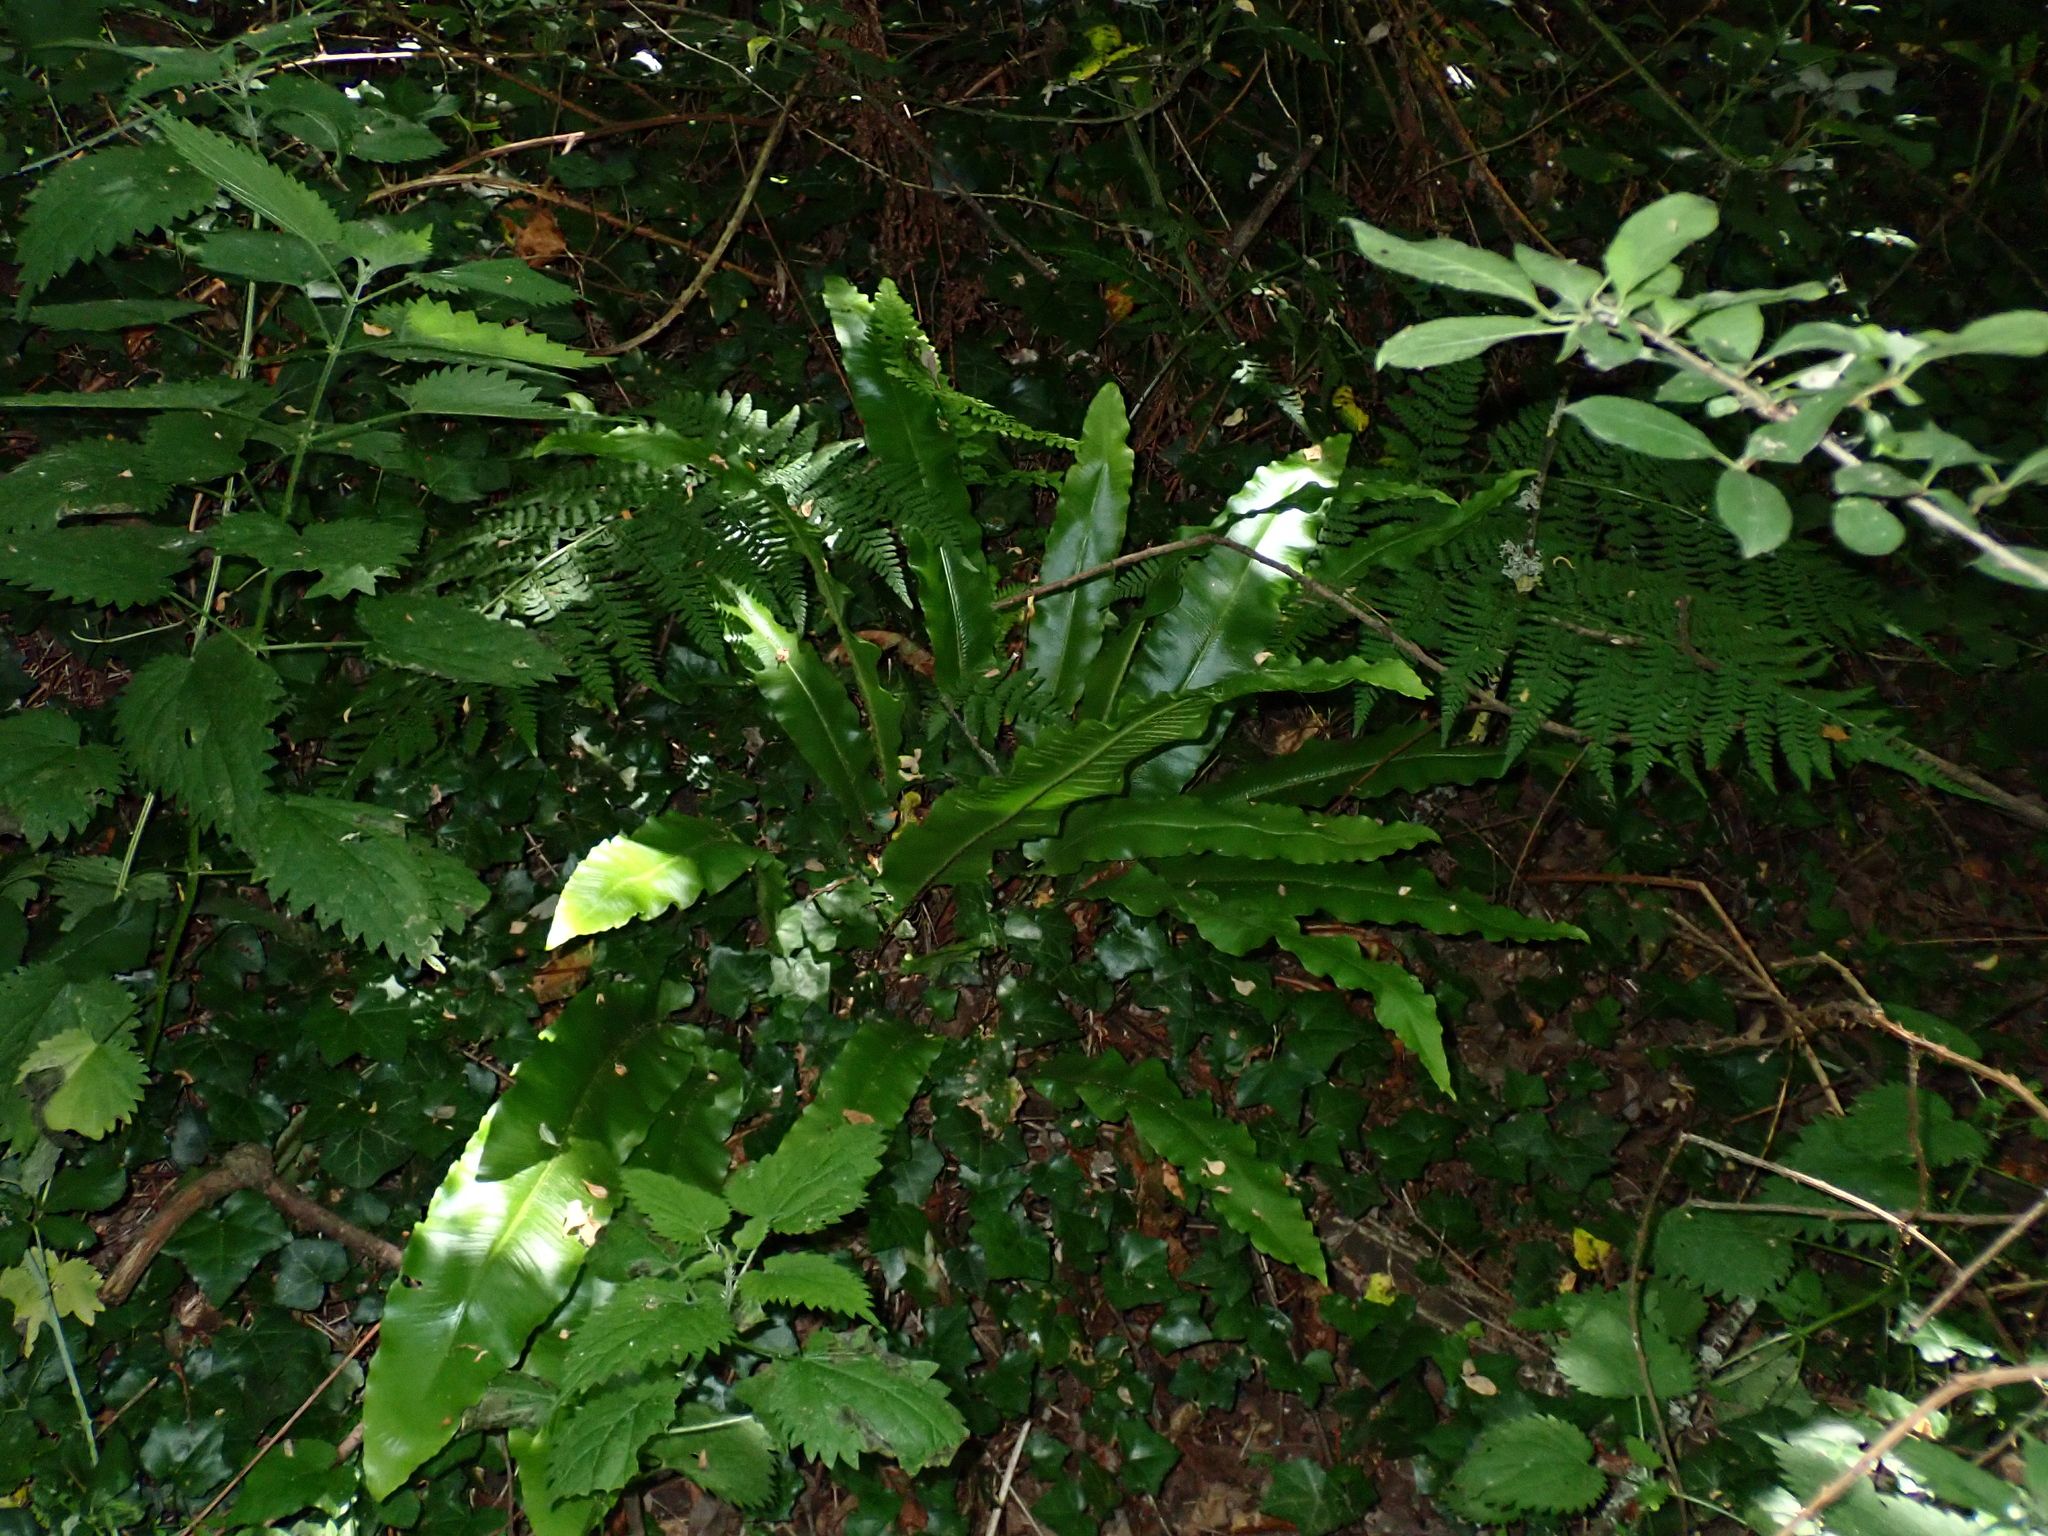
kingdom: Plantae
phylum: Tracheophyta
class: Polypodiopsida
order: Polypodiales
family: Aspleniaceae
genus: Asplenium
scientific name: Asplenium scolopendrium
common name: Hart's-tongue fern
